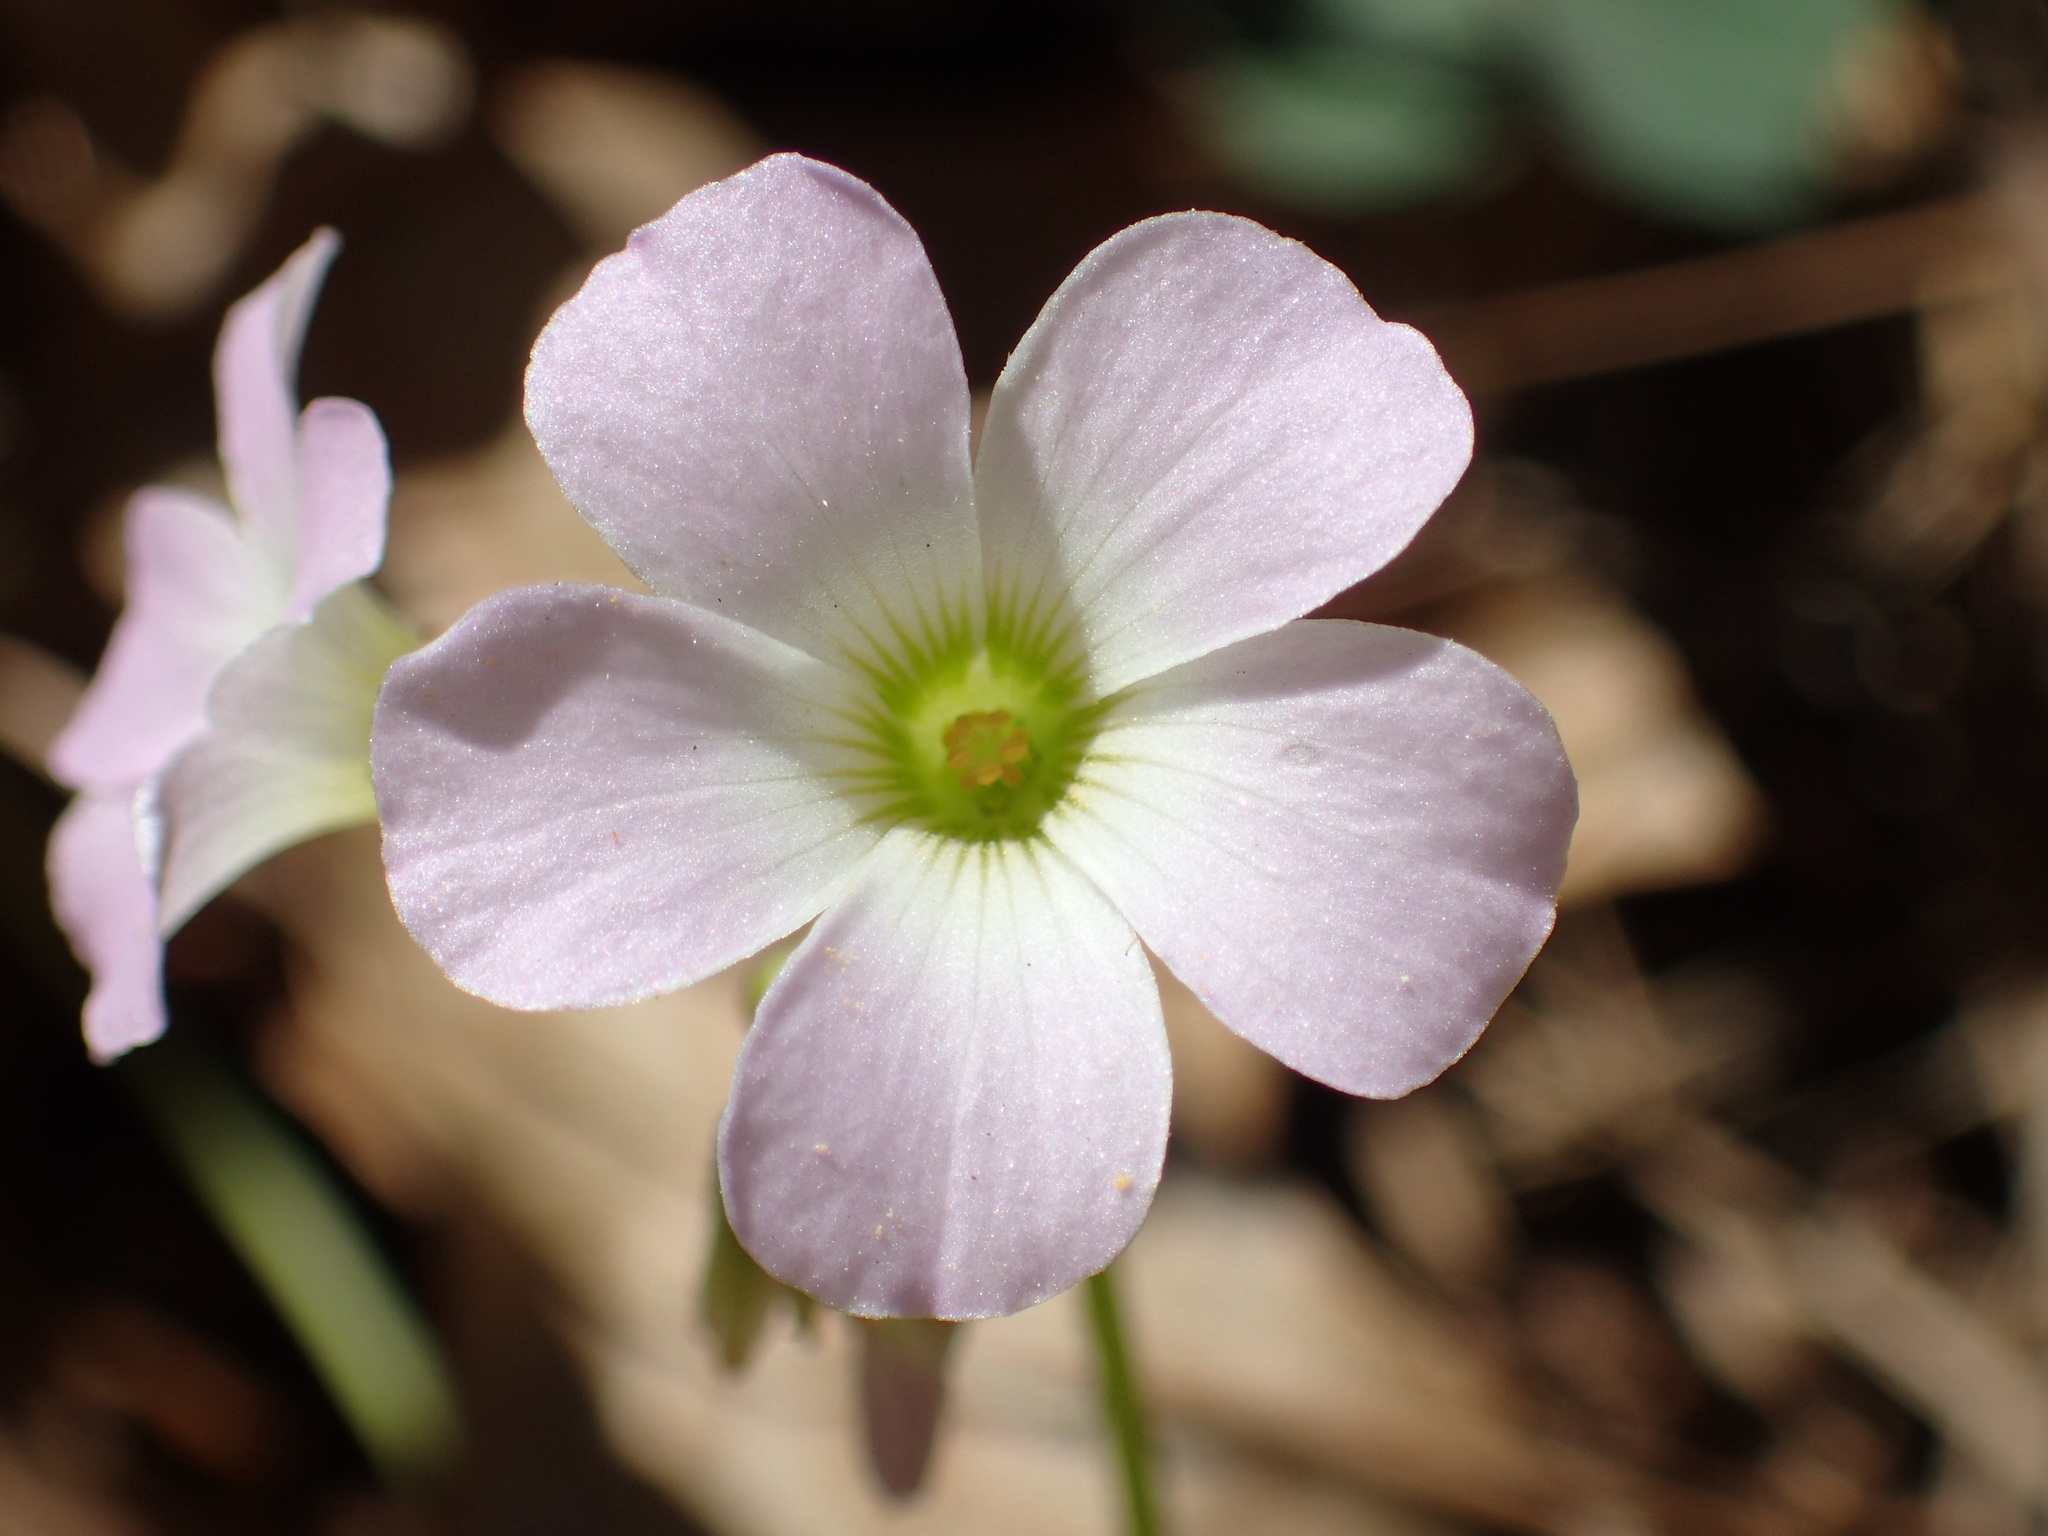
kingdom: Plantae
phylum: Tracheophyta
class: Magnoliopsida
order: Oxalidales
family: Oxalidaceae
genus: Oxalis
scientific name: Oxalis violacea
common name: Violet wood-sorrel
